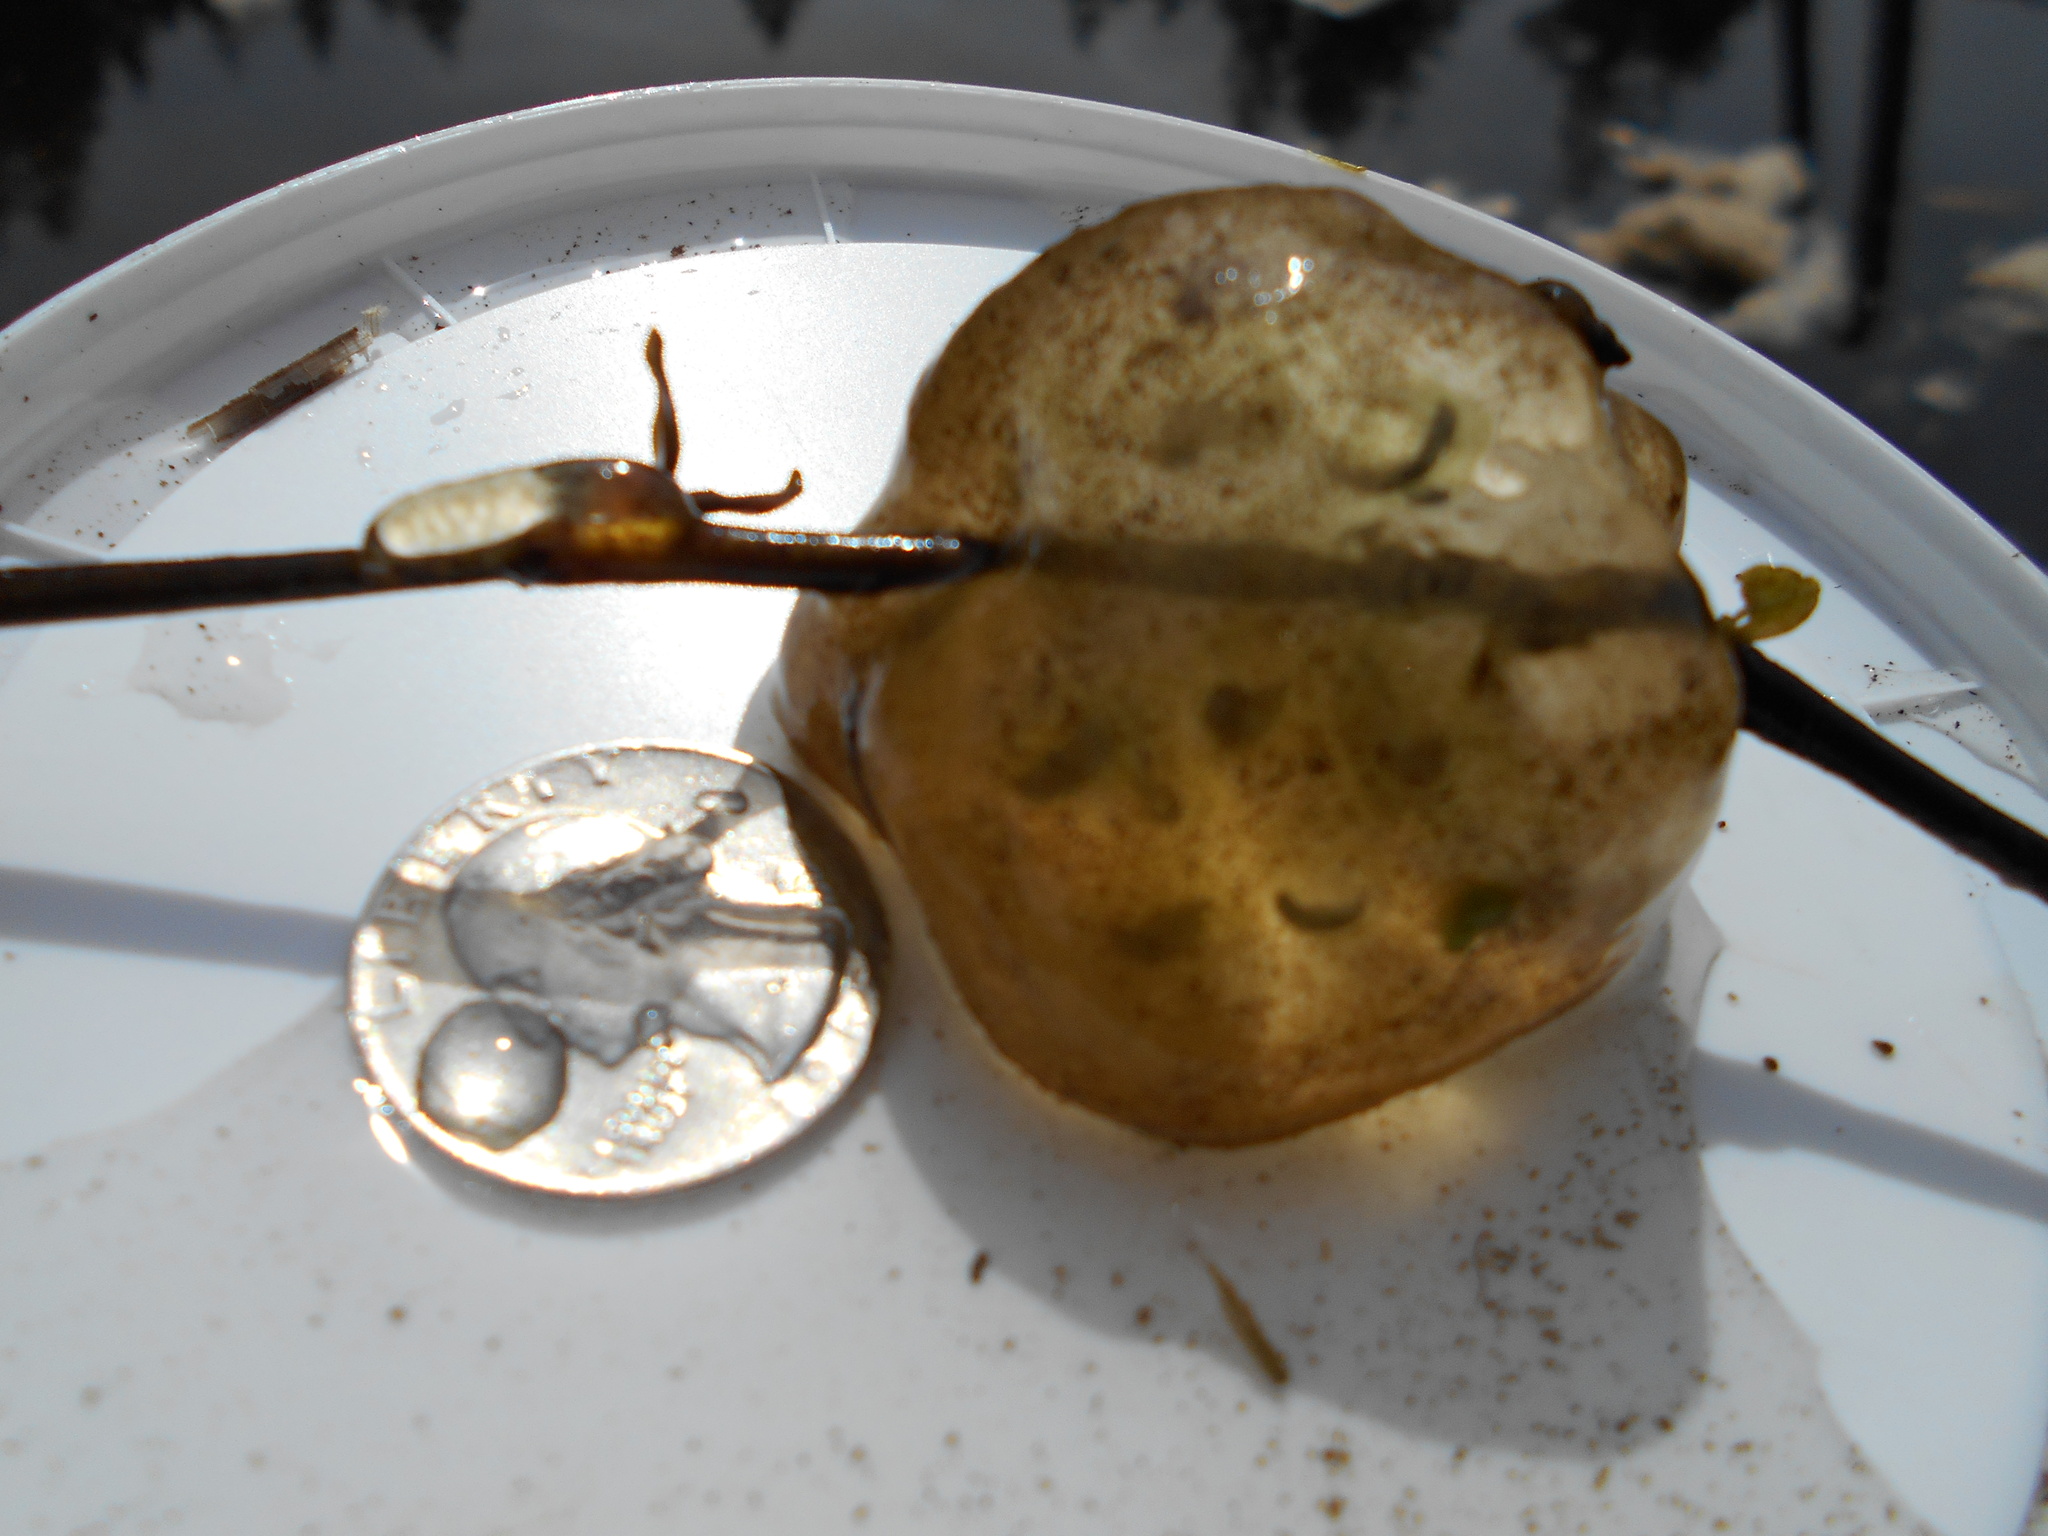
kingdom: Animalia
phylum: Chordata
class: Amphibia
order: Caudata
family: Ambystomatidae
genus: Ambystoma
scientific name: Ambystoma gracile
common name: Northwestern salamander
